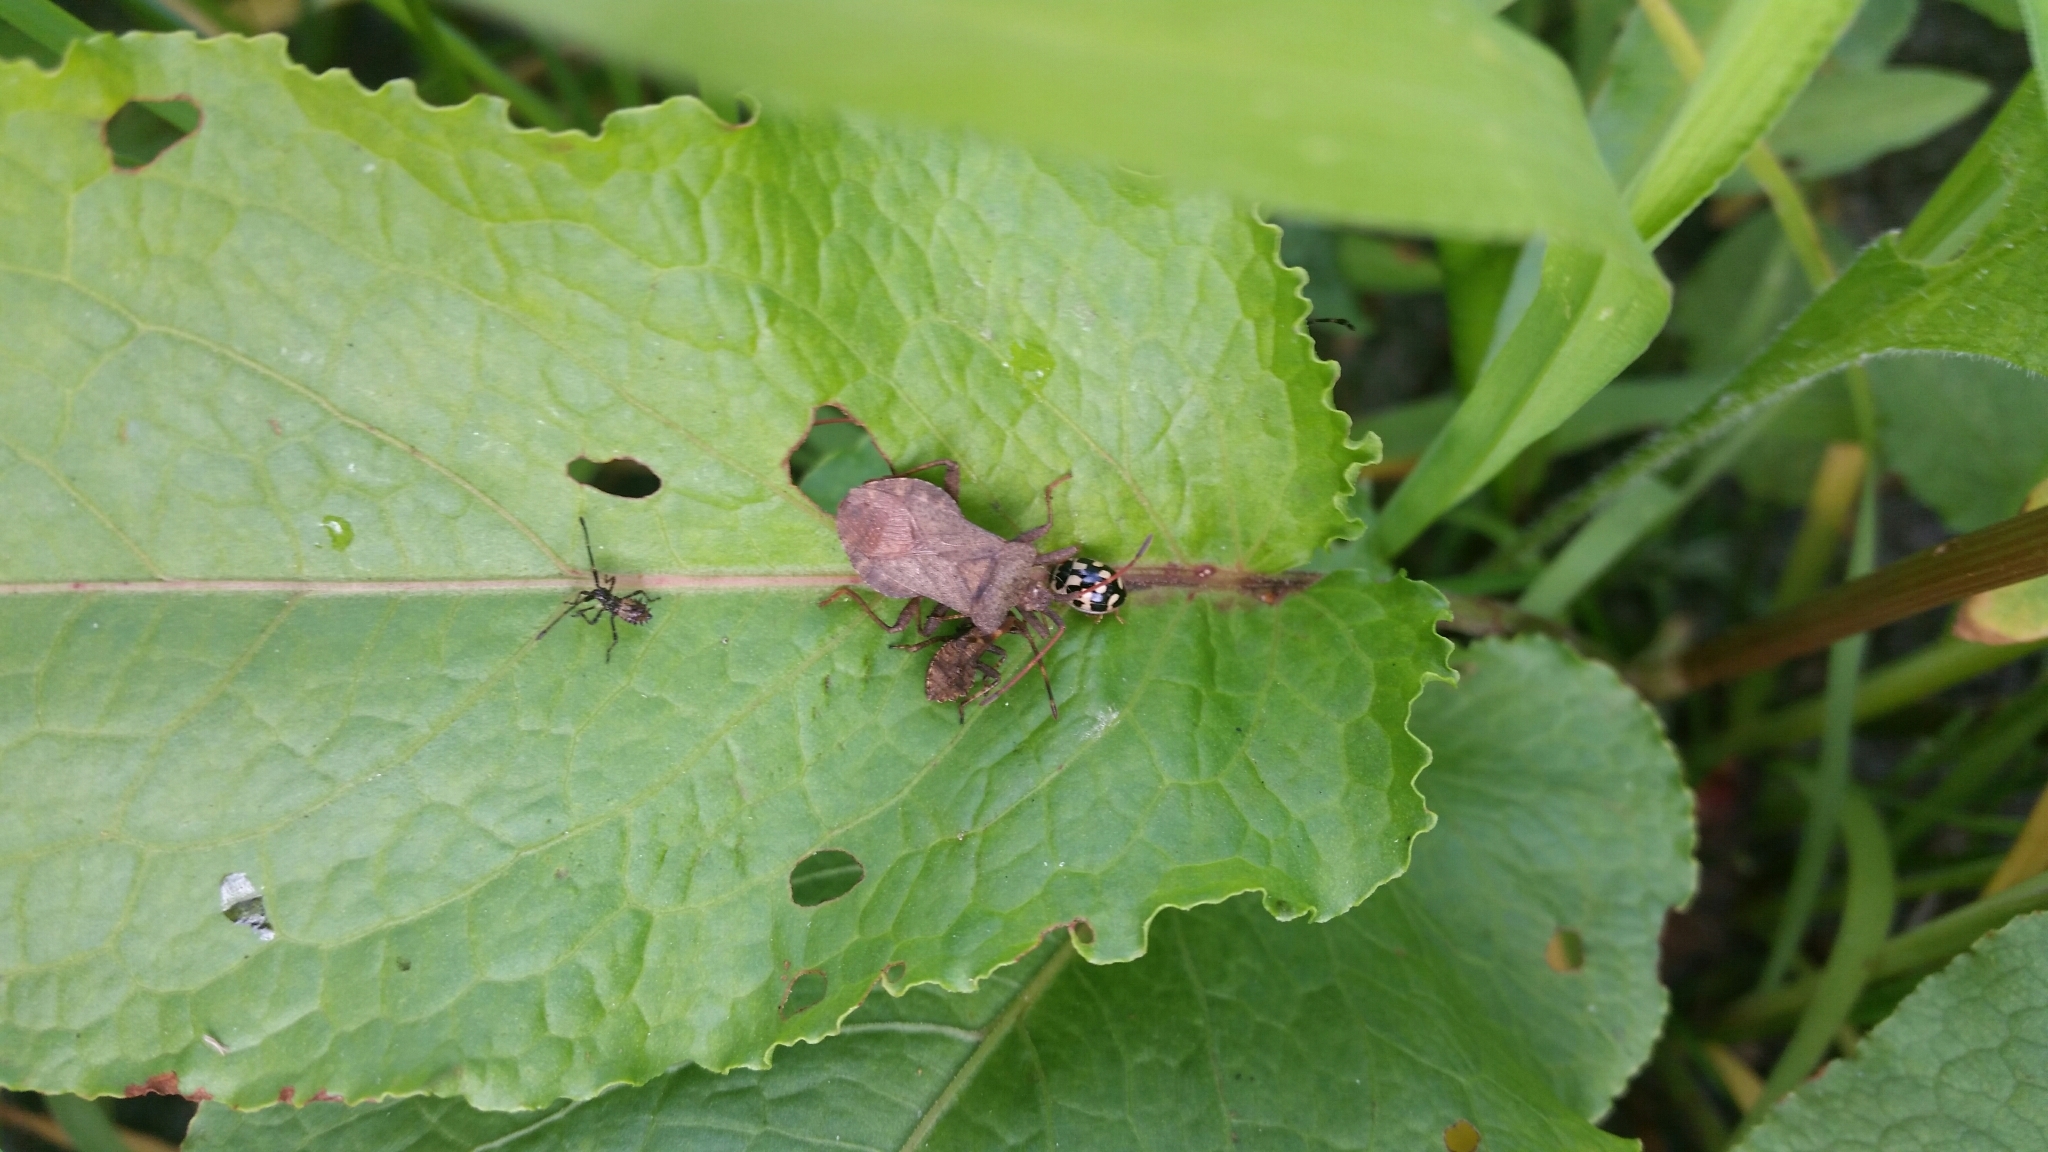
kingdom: Animalia
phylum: Arthropoda
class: Insecta
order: Hemiptera
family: Coreidae
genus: Coreus
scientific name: Coreus marginatus
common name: Dock bug
